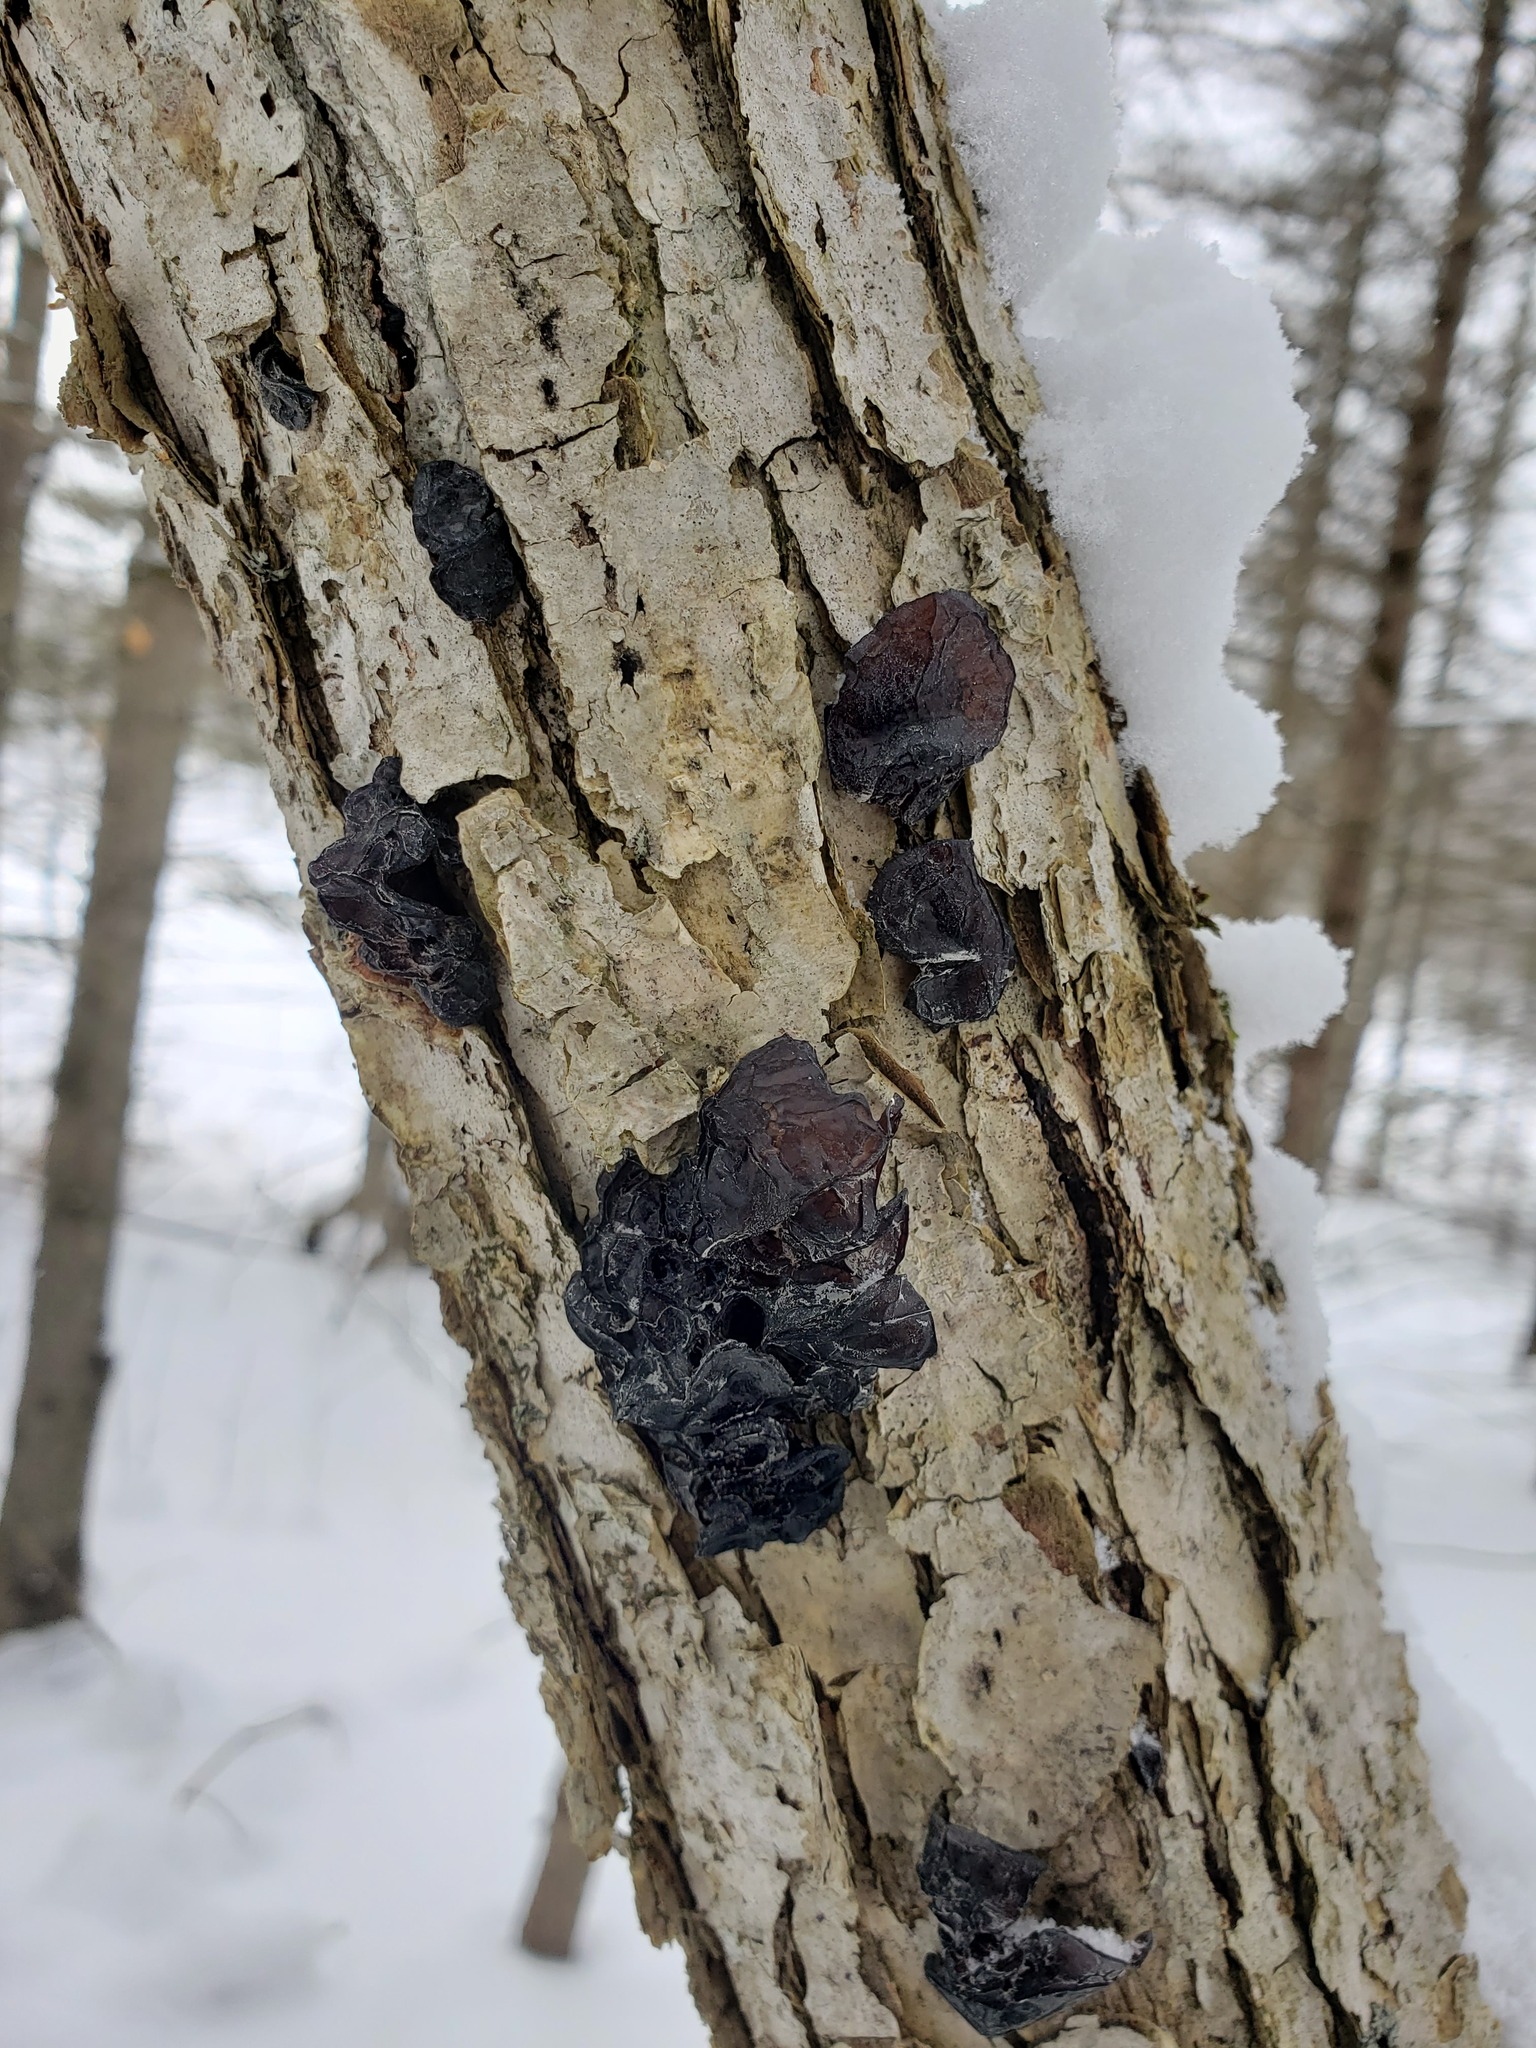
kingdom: Fungi
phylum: Basidiomycota
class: Agaricomycetes
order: Auriculariales
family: Auriculariaceae
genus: Exidia
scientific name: Exidia
